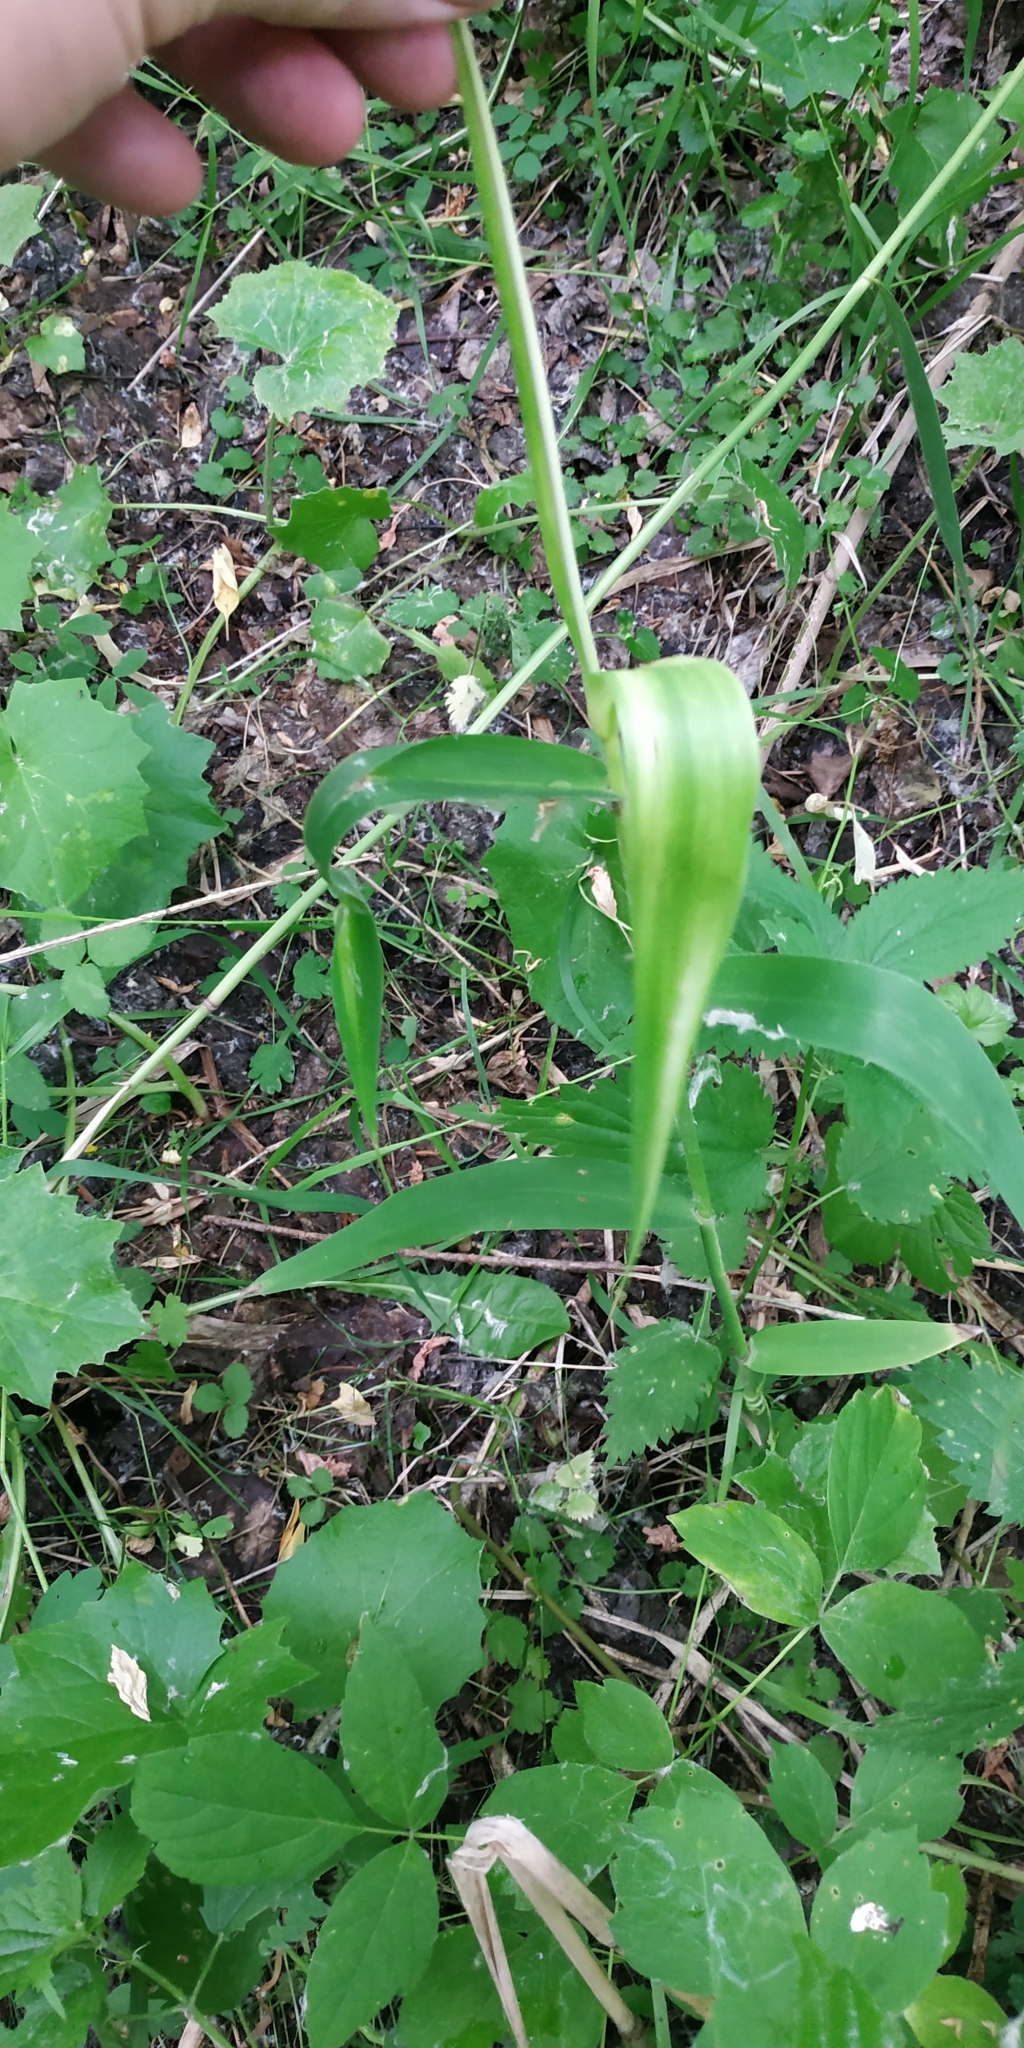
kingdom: Plantae
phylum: Tracheophyta
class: Liliopsida
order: Poales
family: Poaceae
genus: Phragmites
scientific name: Phragmites australis
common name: Common reed
